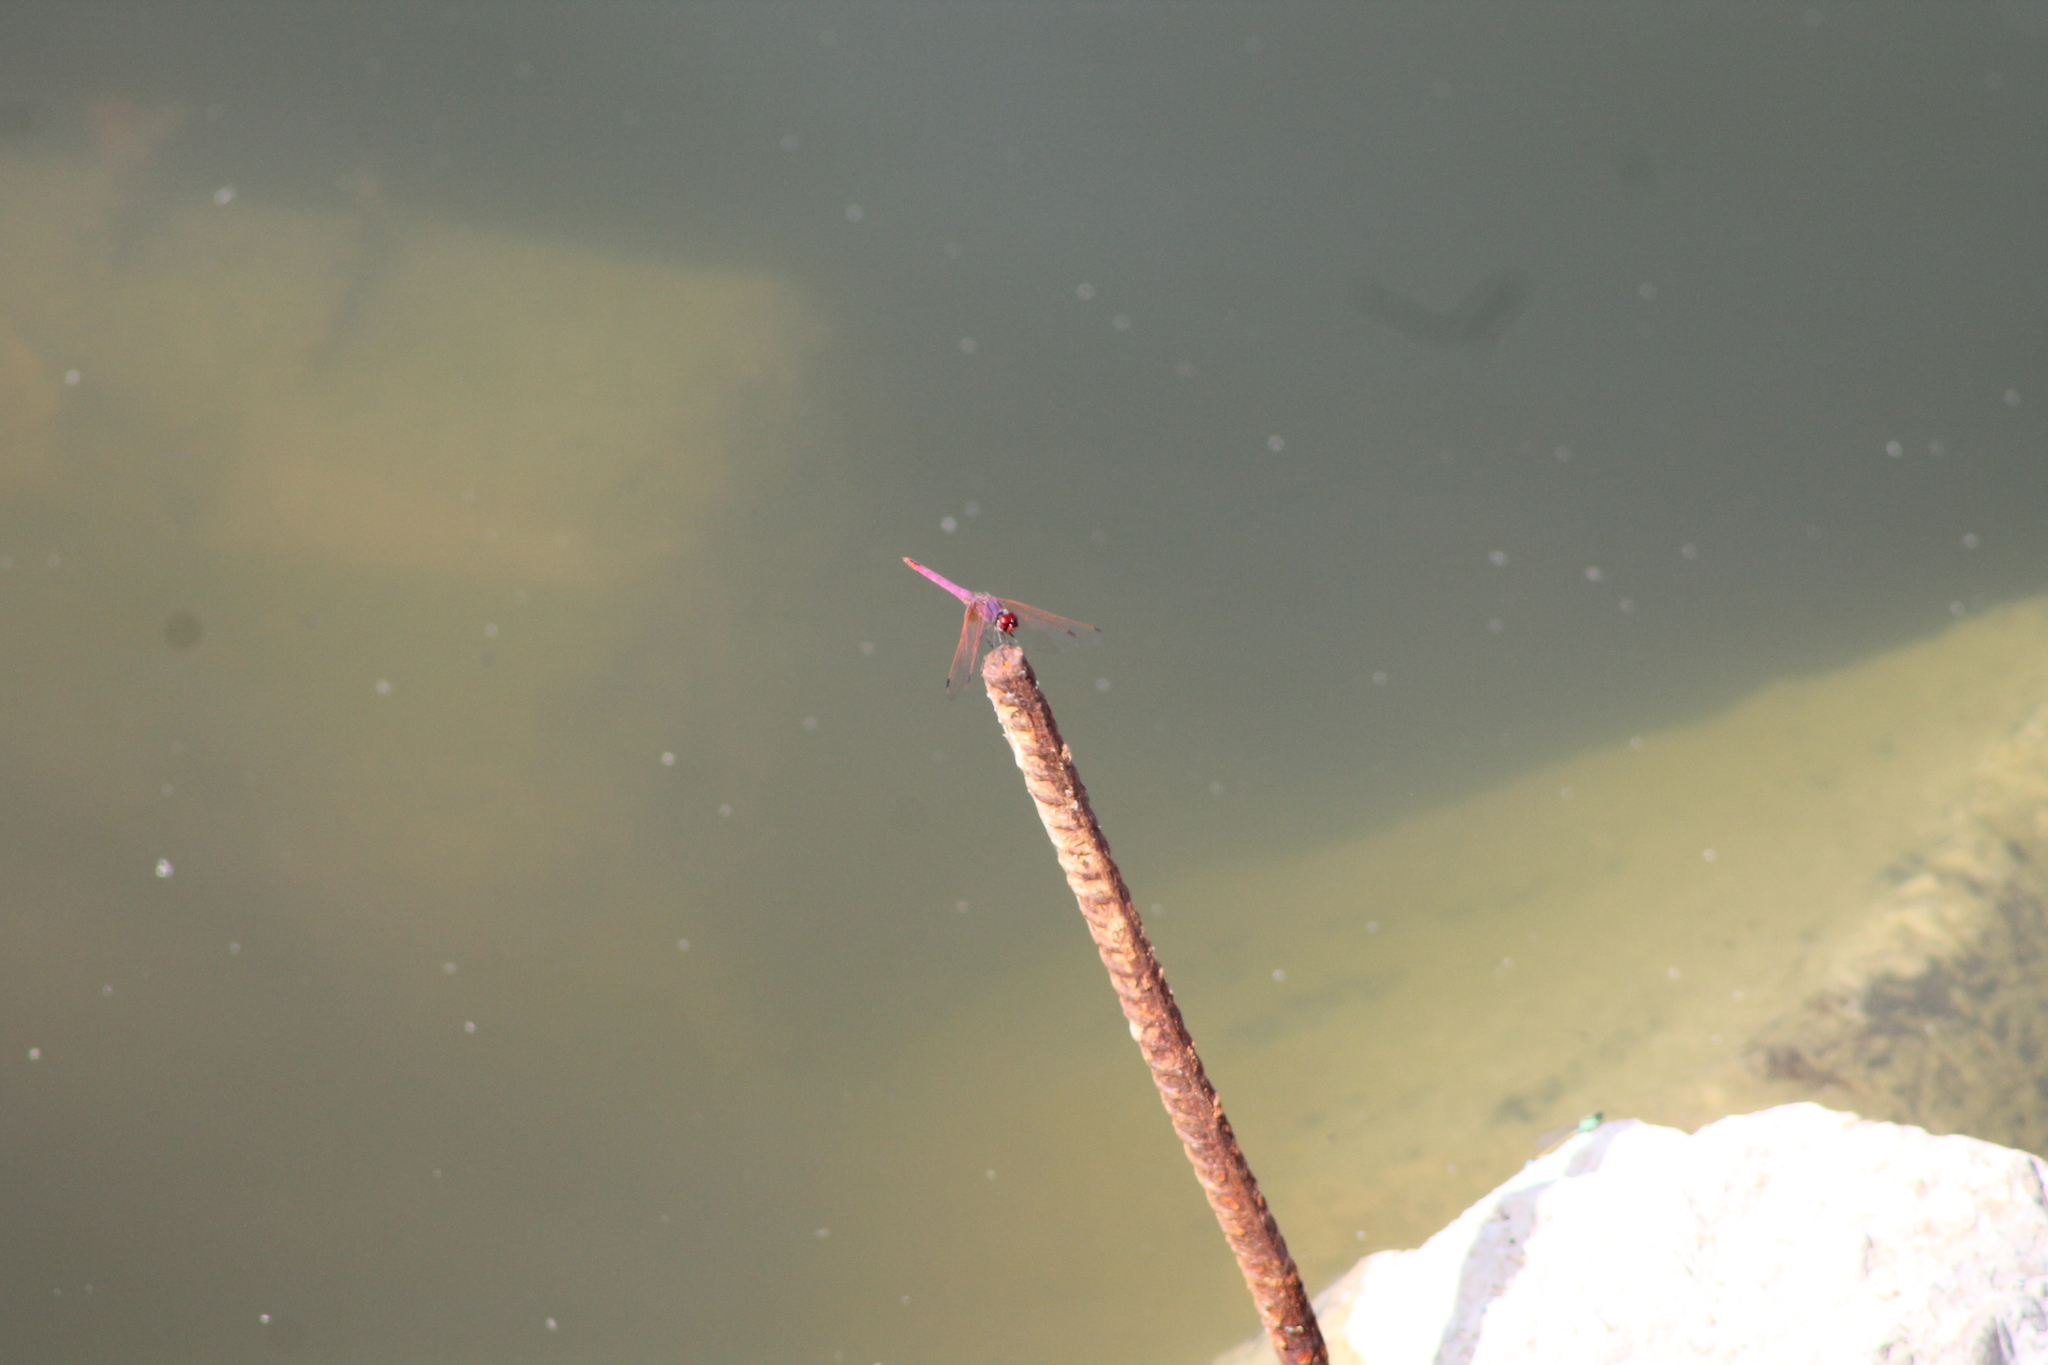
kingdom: Animalia
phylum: Arthropoda
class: Insecta
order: Odonata
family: Libellulidae
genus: Trithemis
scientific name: Trithemis annulata
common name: Violet dropwing
